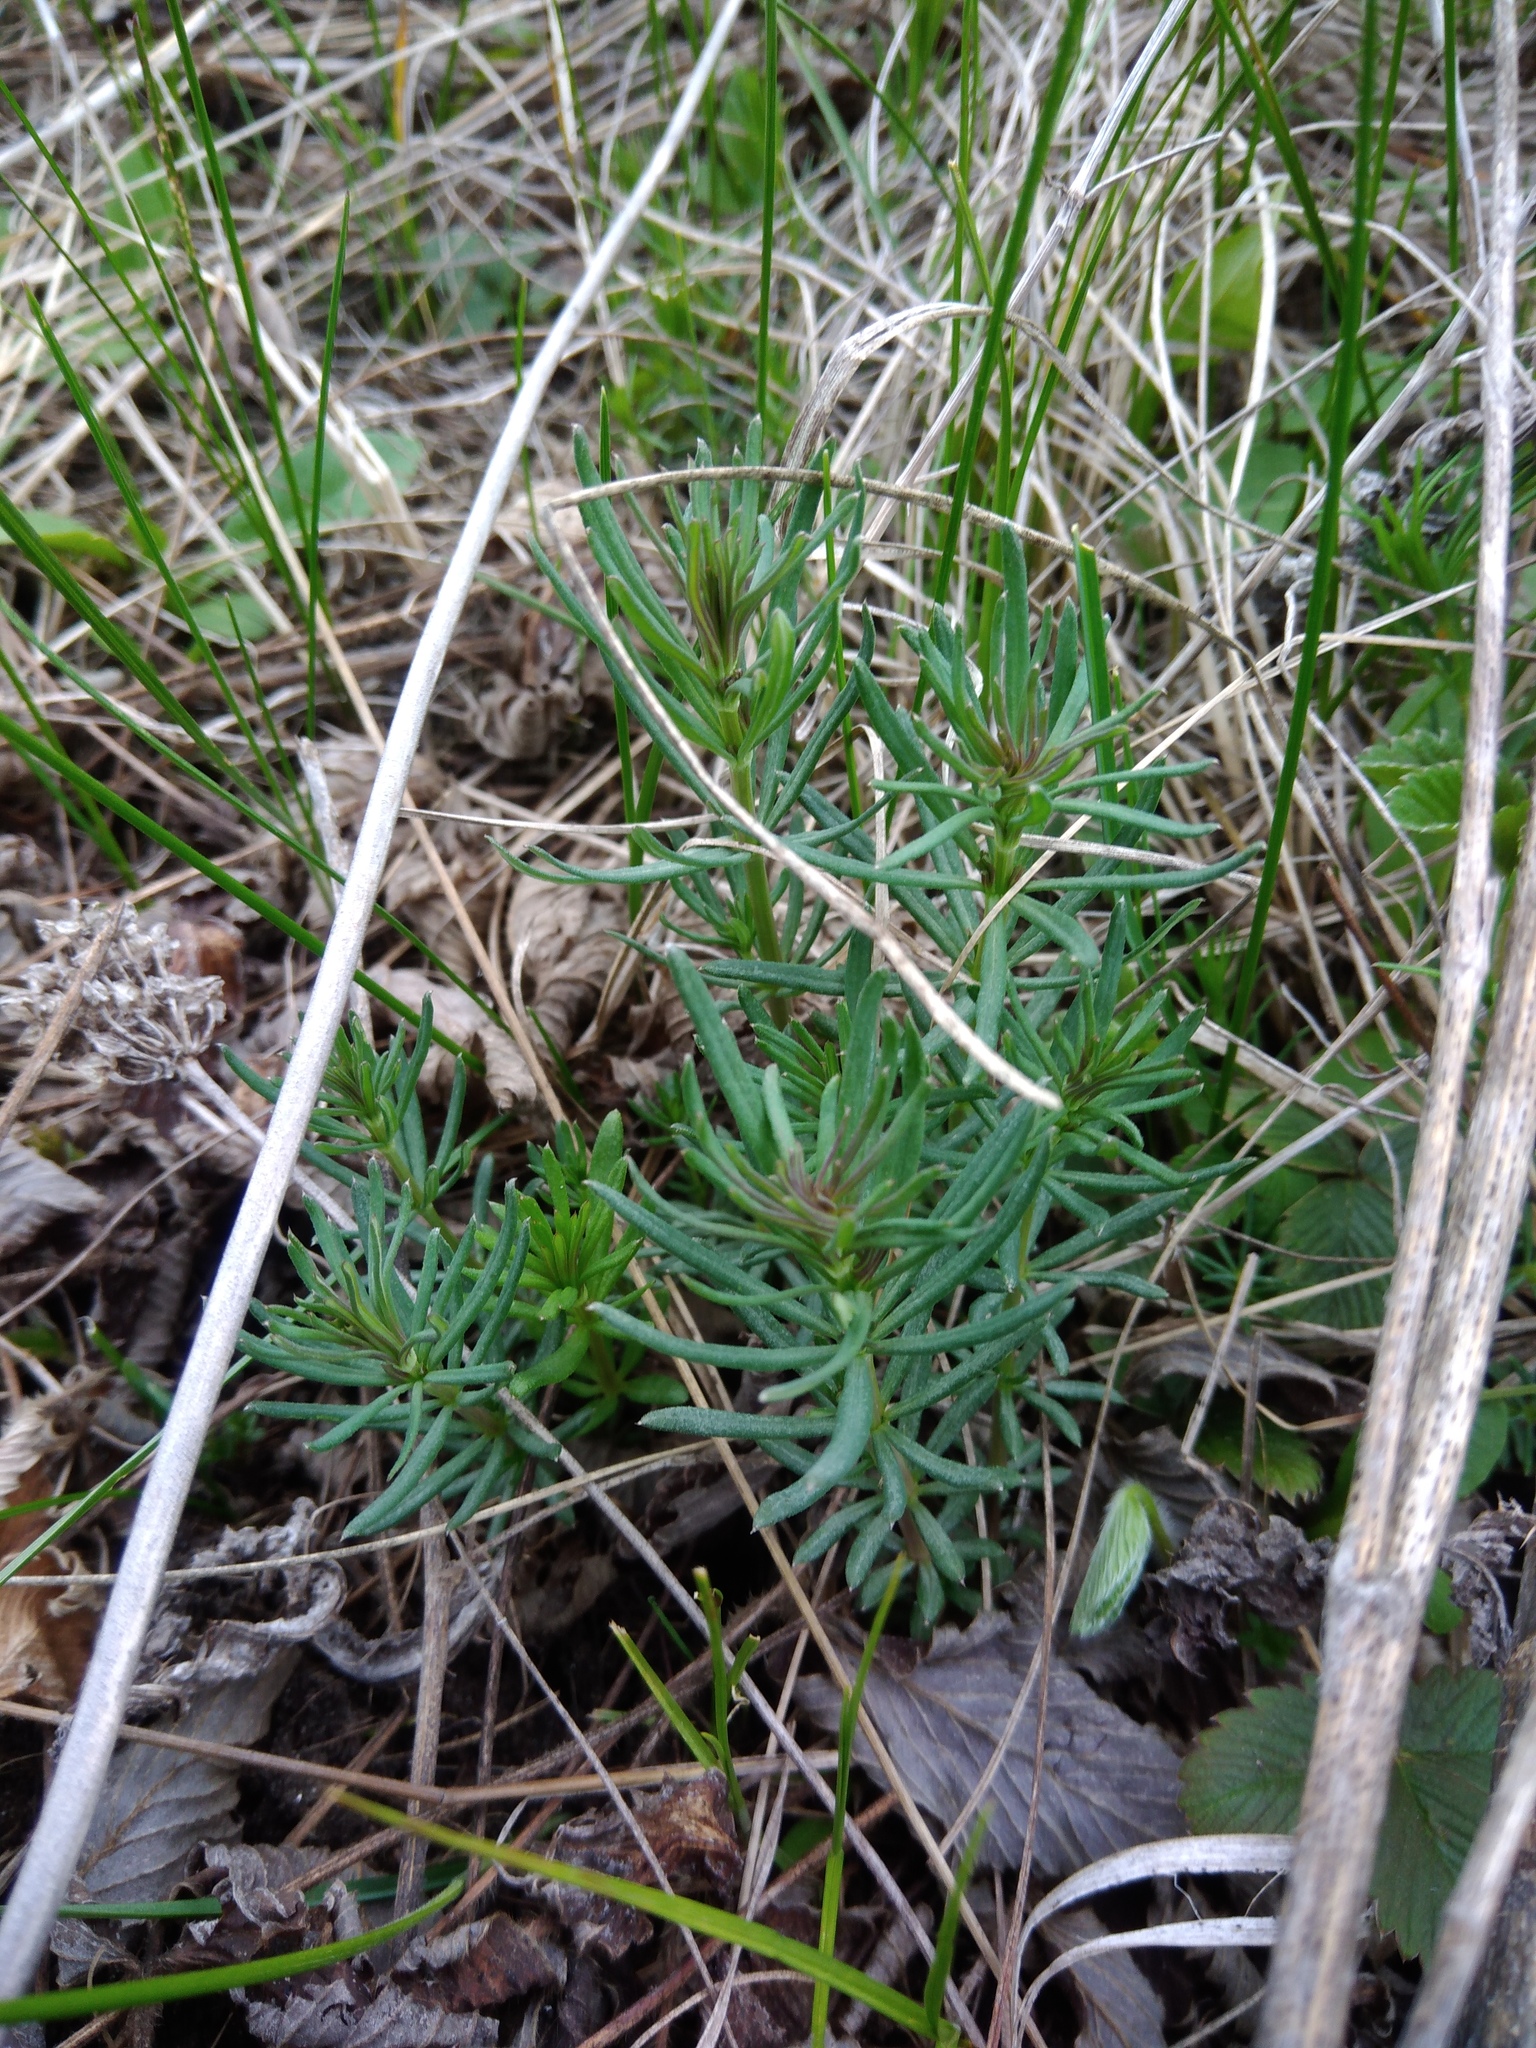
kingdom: Plantae
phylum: Tracheophyta
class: Magnoliopsida
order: Gentianales
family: Rubiaceae
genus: Galium
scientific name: Galium verum
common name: Lady's bedstraw
